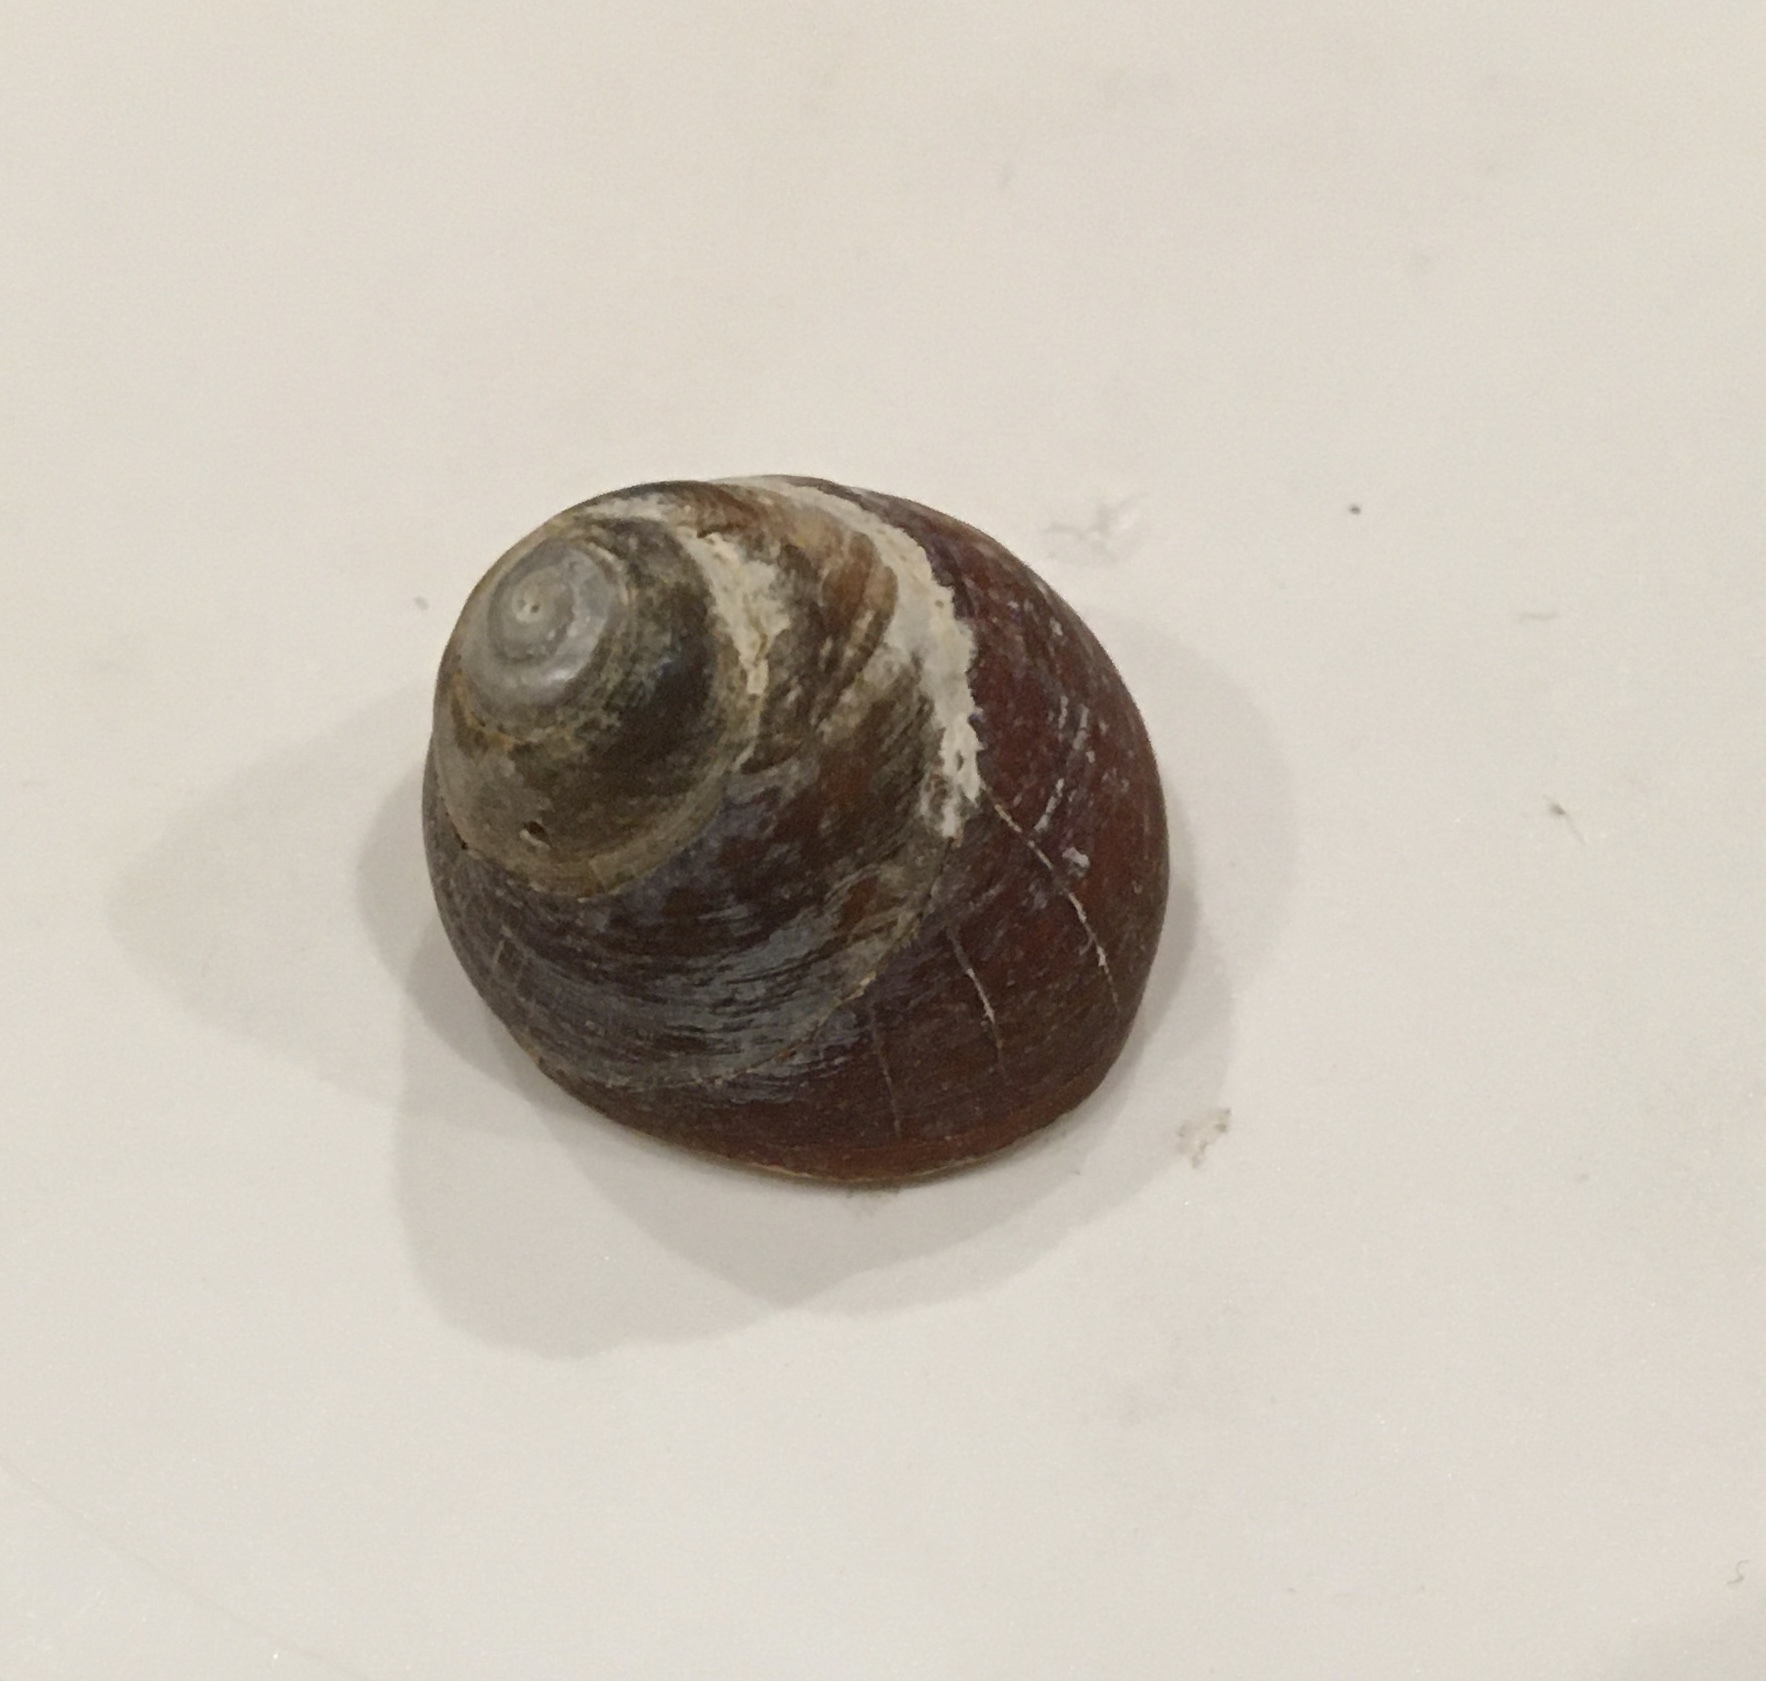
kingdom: Animalia
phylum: Mollusca
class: Gastropoda
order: Trochida
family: Tegulidae
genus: Tegula
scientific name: Tegula brunnea
